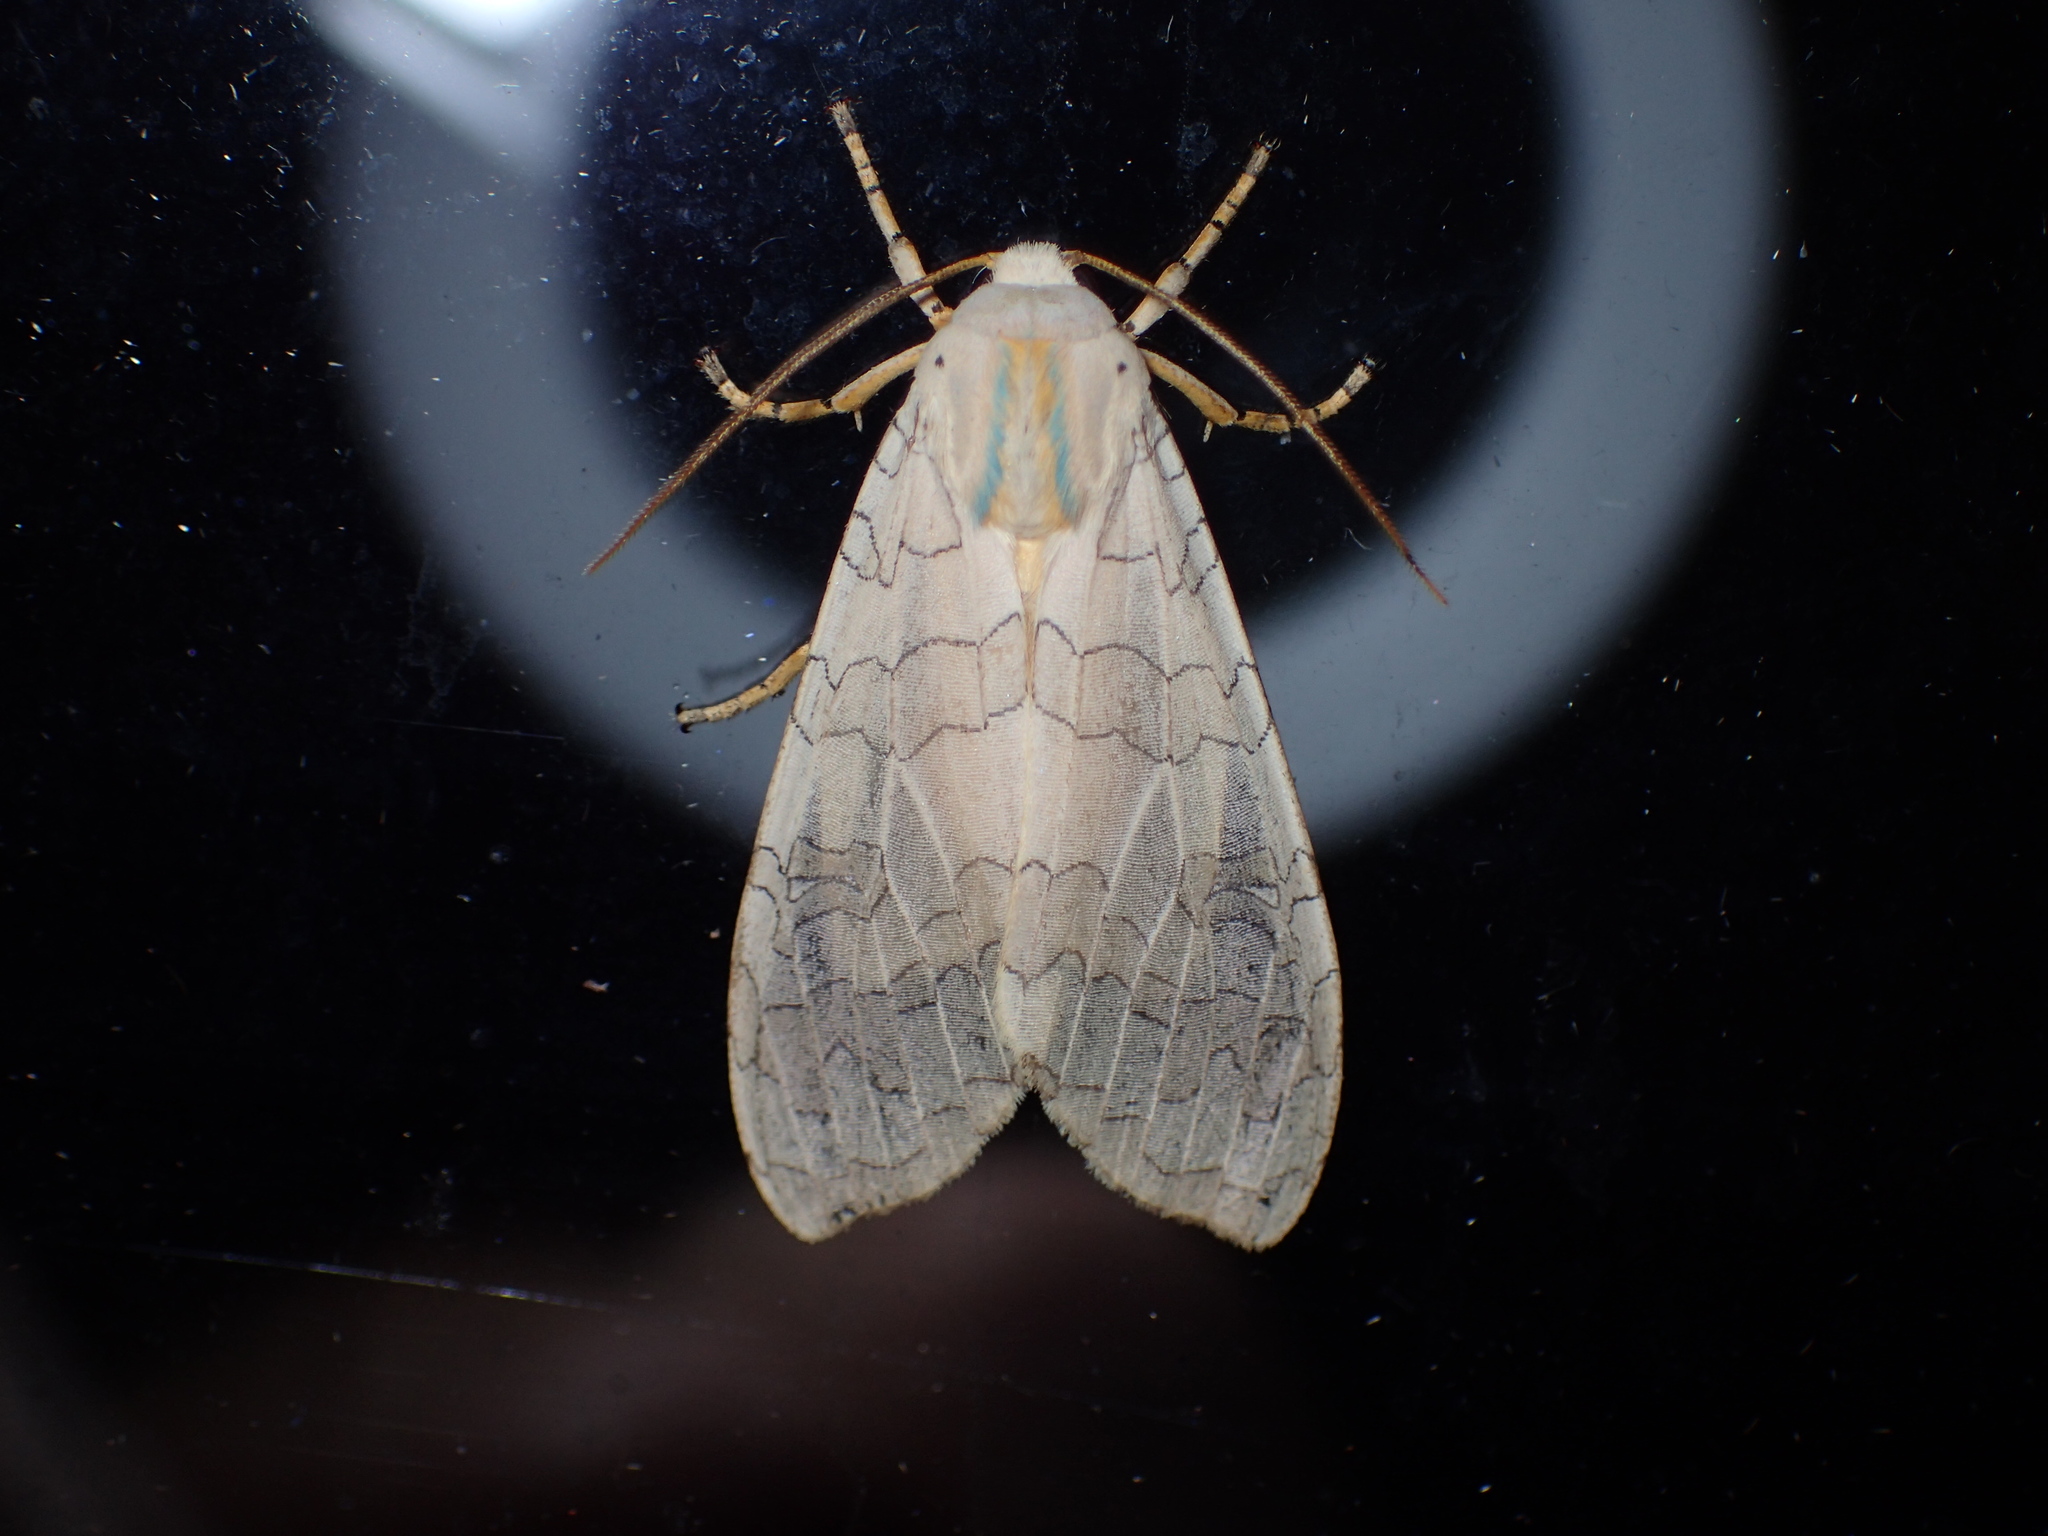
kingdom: Animalia
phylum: Arthropoda
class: Insecta
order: Lepidoptera
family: Erebidae
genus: Halysidota
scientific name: Halysidota
